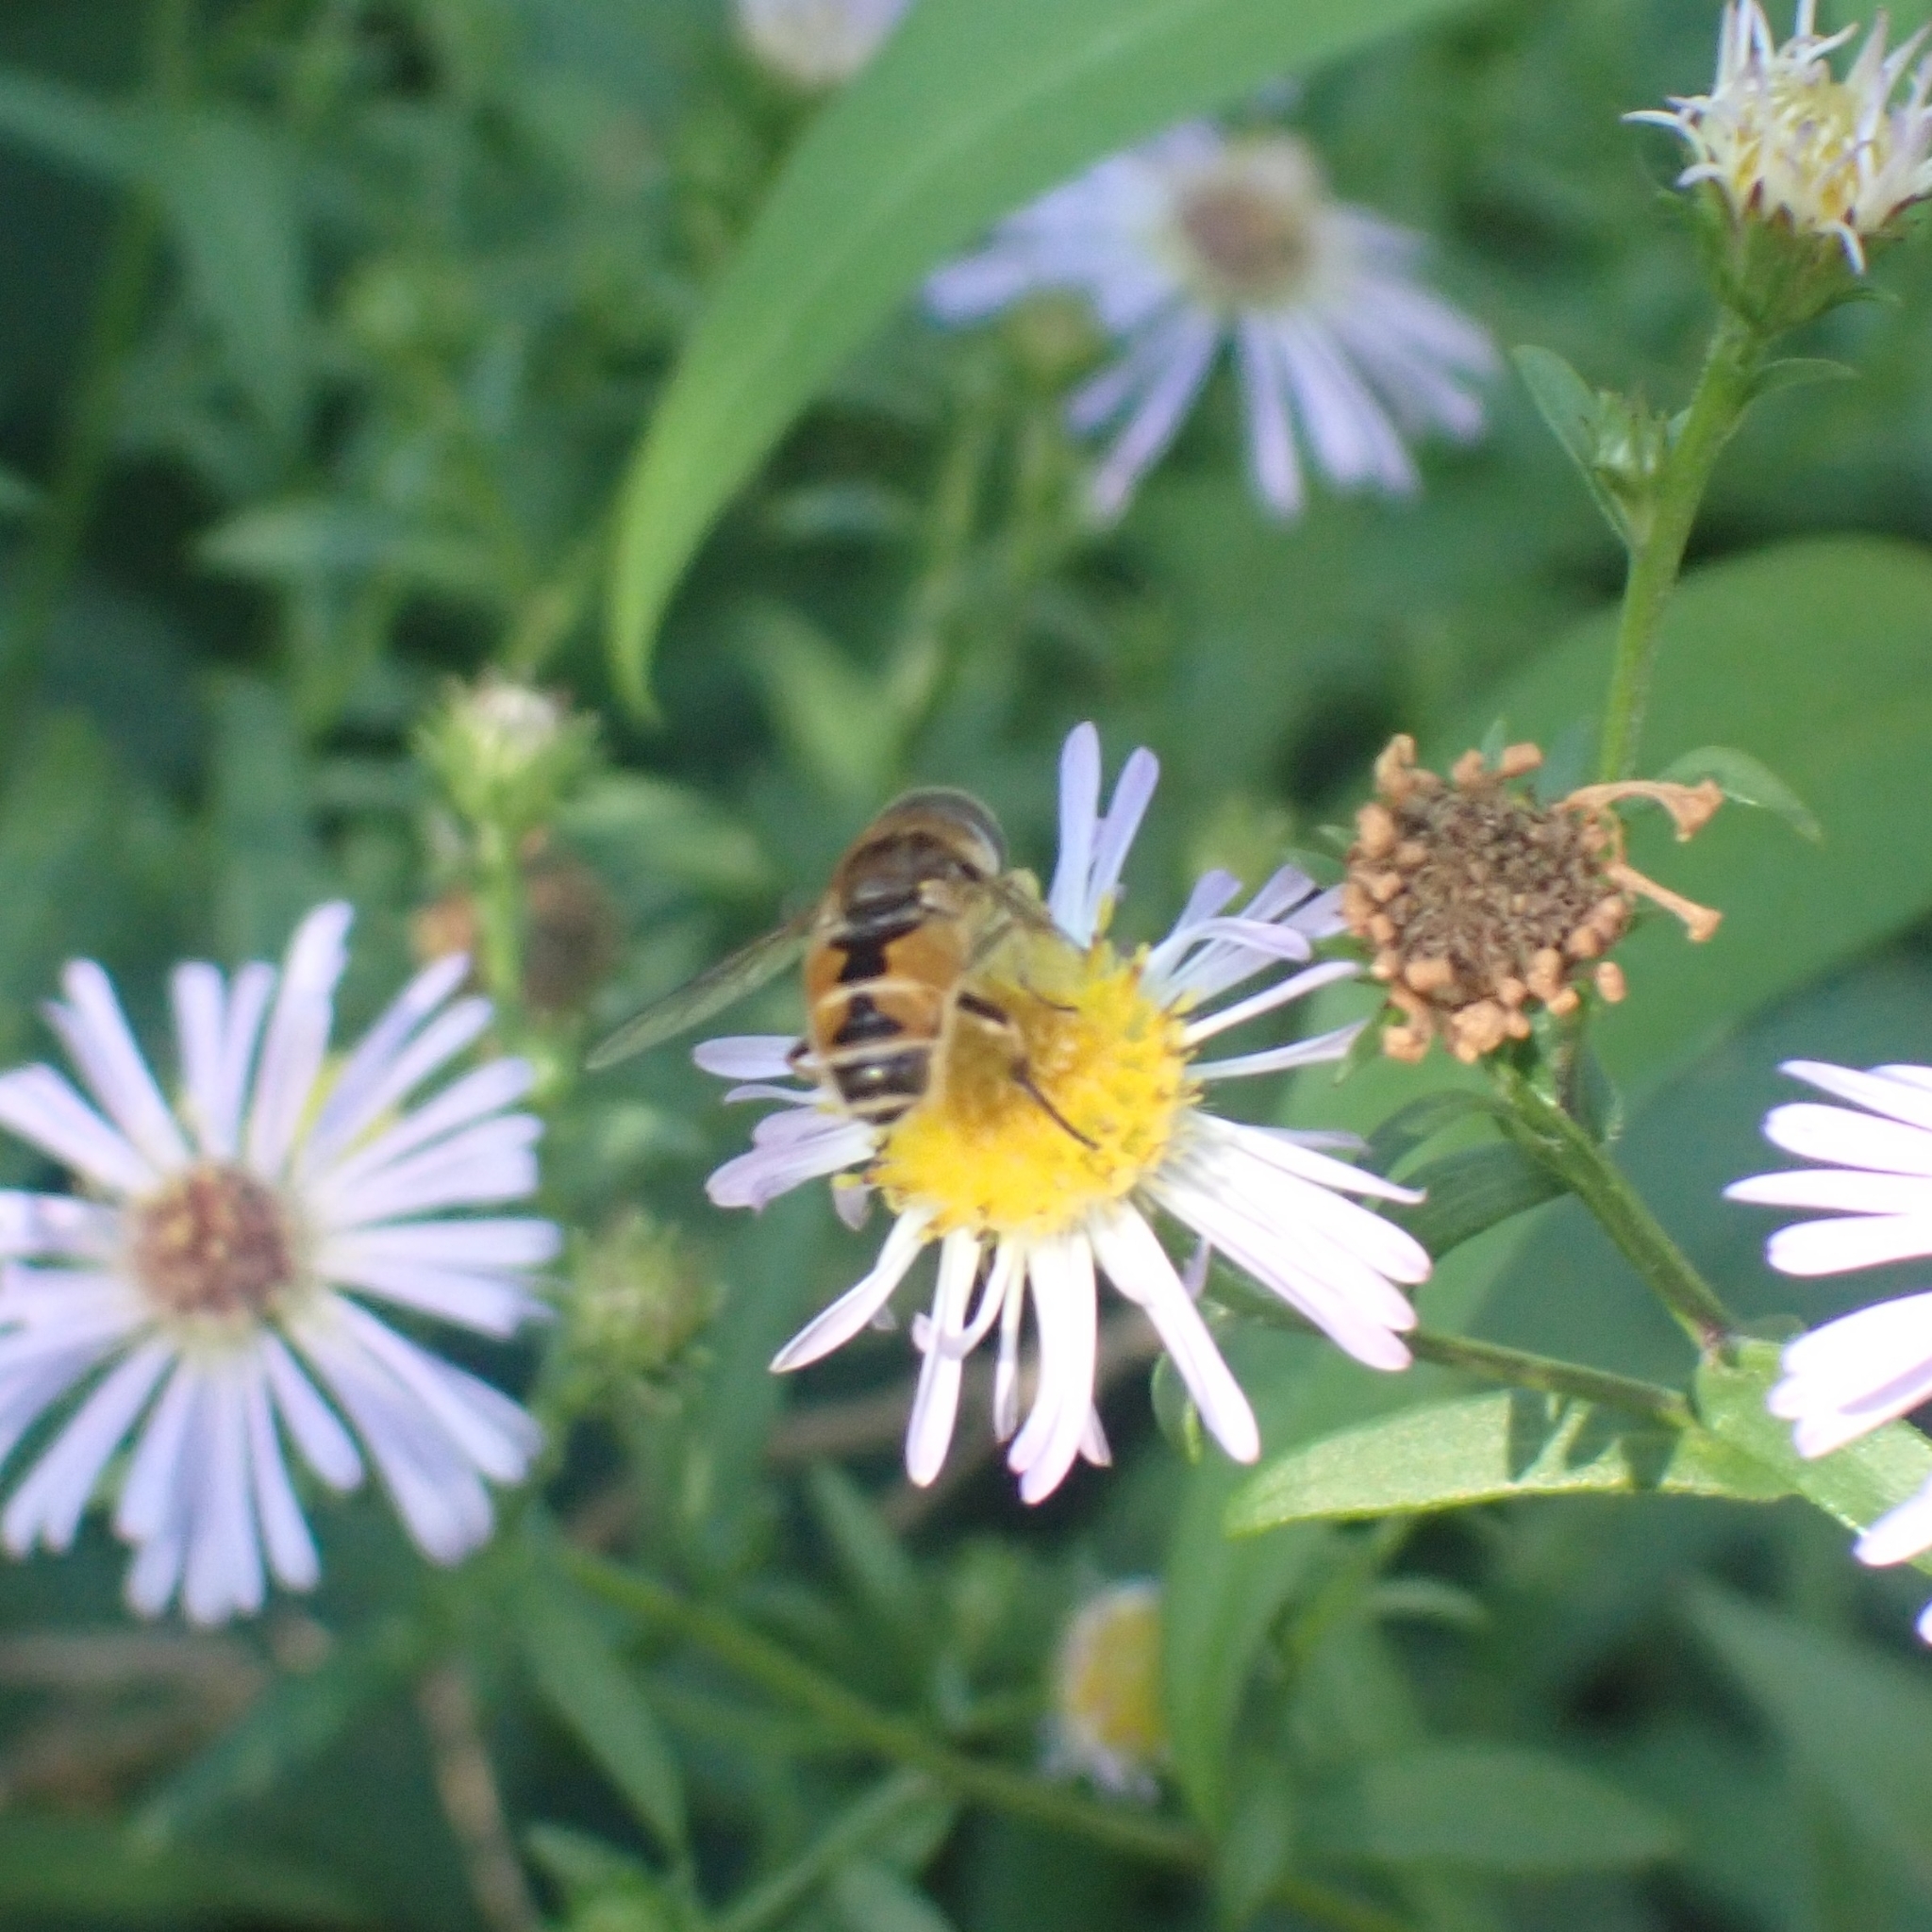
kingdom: Animalia
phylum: Arthropoda
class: Insecta
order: Diptera
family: Syrphidae
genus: Eristalis
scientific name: Eristalis arbustorum
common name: Hover fly
